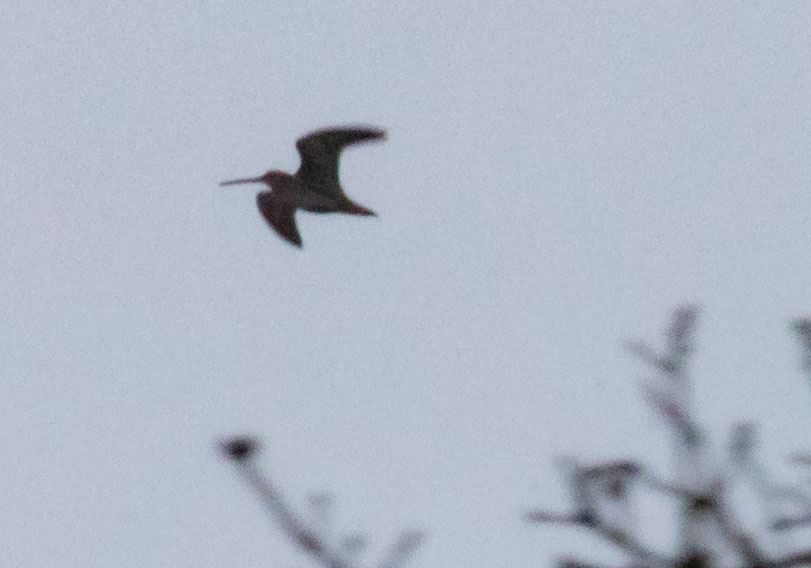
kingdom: Animalia
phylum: Chordata
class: Aves
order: Charadriiformes
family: Scolopacidae
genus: Gallinago
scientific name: Gallinago delicata
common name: Wilson's snipe
